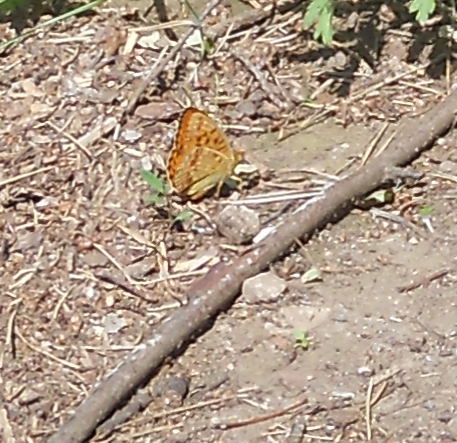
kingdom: Animalia
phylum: Arthropoda
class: Insecta
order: Lepidoptera
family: Nymphalidae
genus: Fabriciana
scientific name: Fabriciana adippe
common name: High brown fritillary
